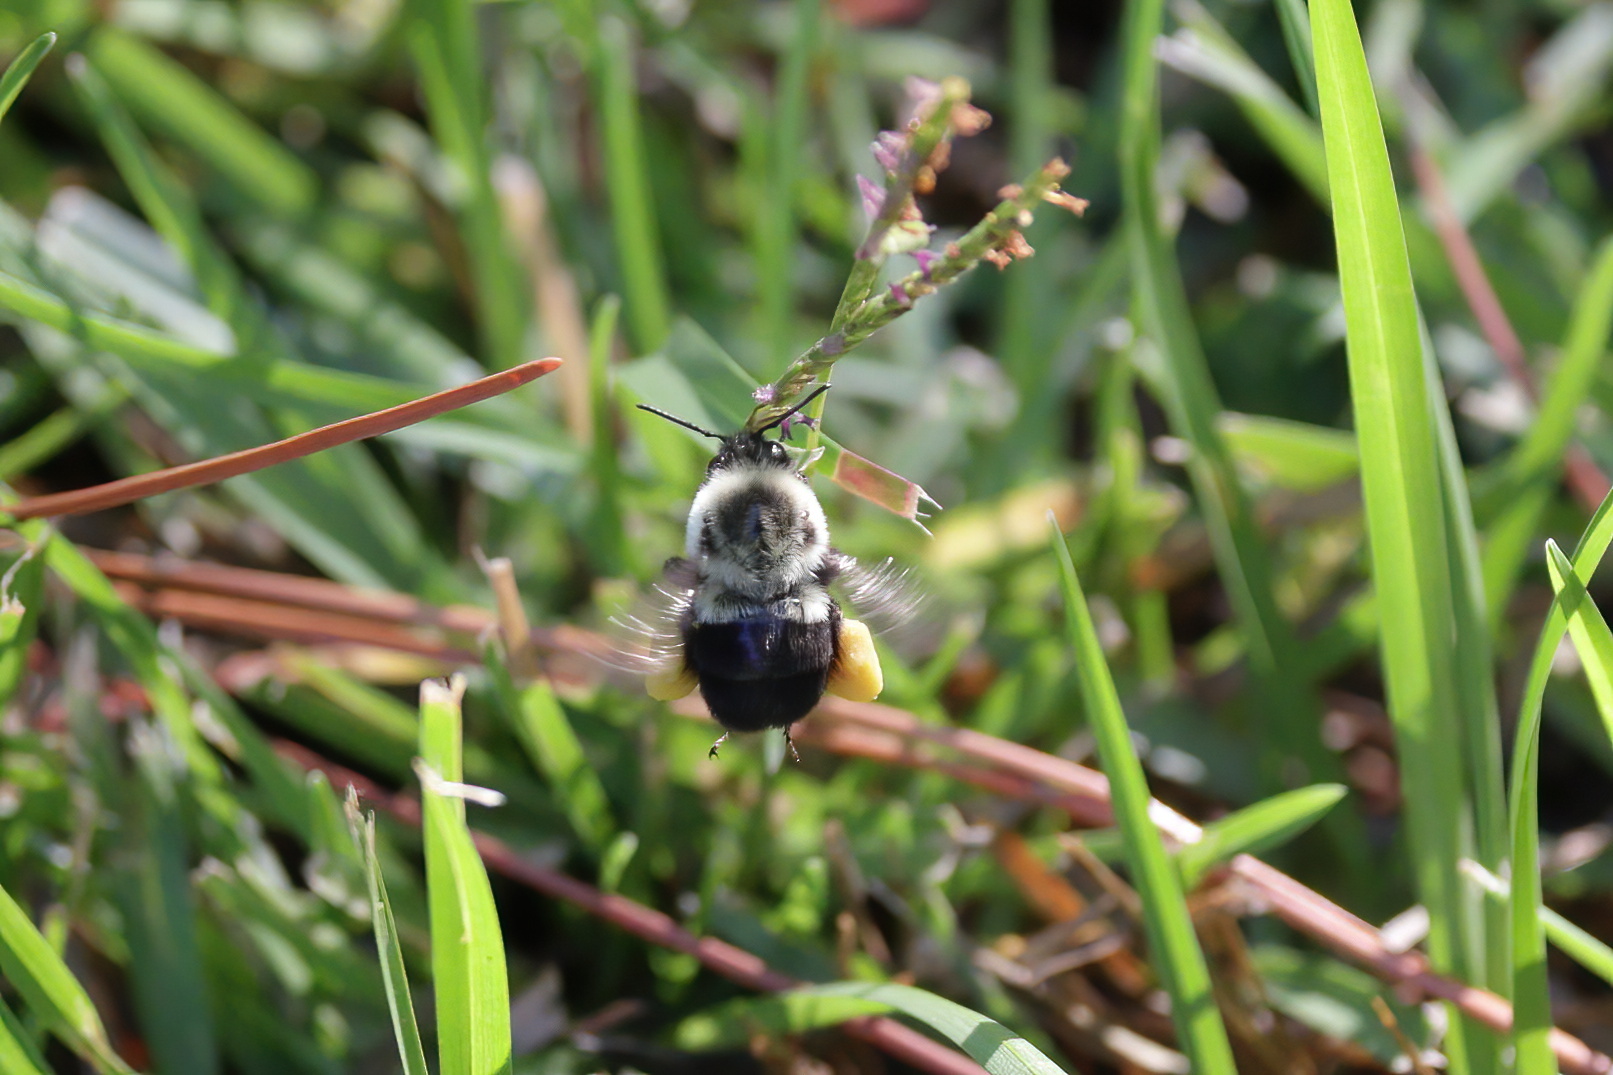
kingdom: Animalia
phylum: Arthropoda
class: Insecta
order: Hymenoptera
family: Apidae
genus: Bombus
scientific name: Bombus impatiens
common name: Common eastern bumble bee
